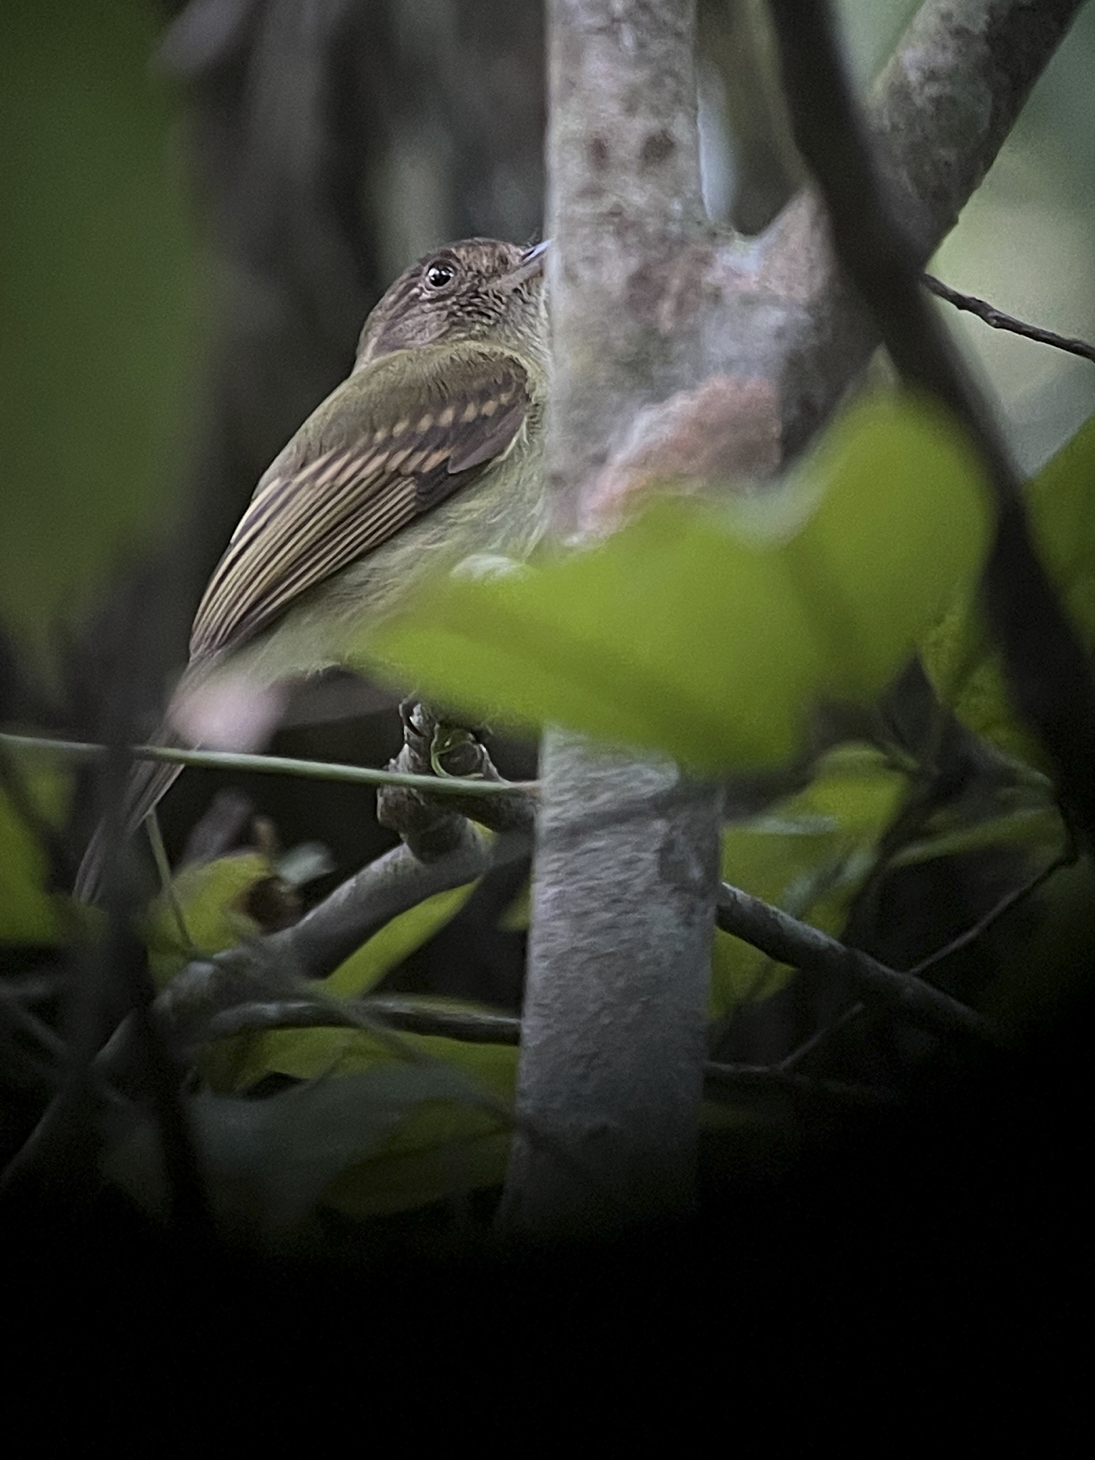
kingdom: Animalia
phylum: Chordata
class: Aves
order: Passeriformes
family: Tyrannidae
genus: Leptopogon
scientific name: Leptopogon amaurocephalus
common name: Sepia-capped flycatcher
